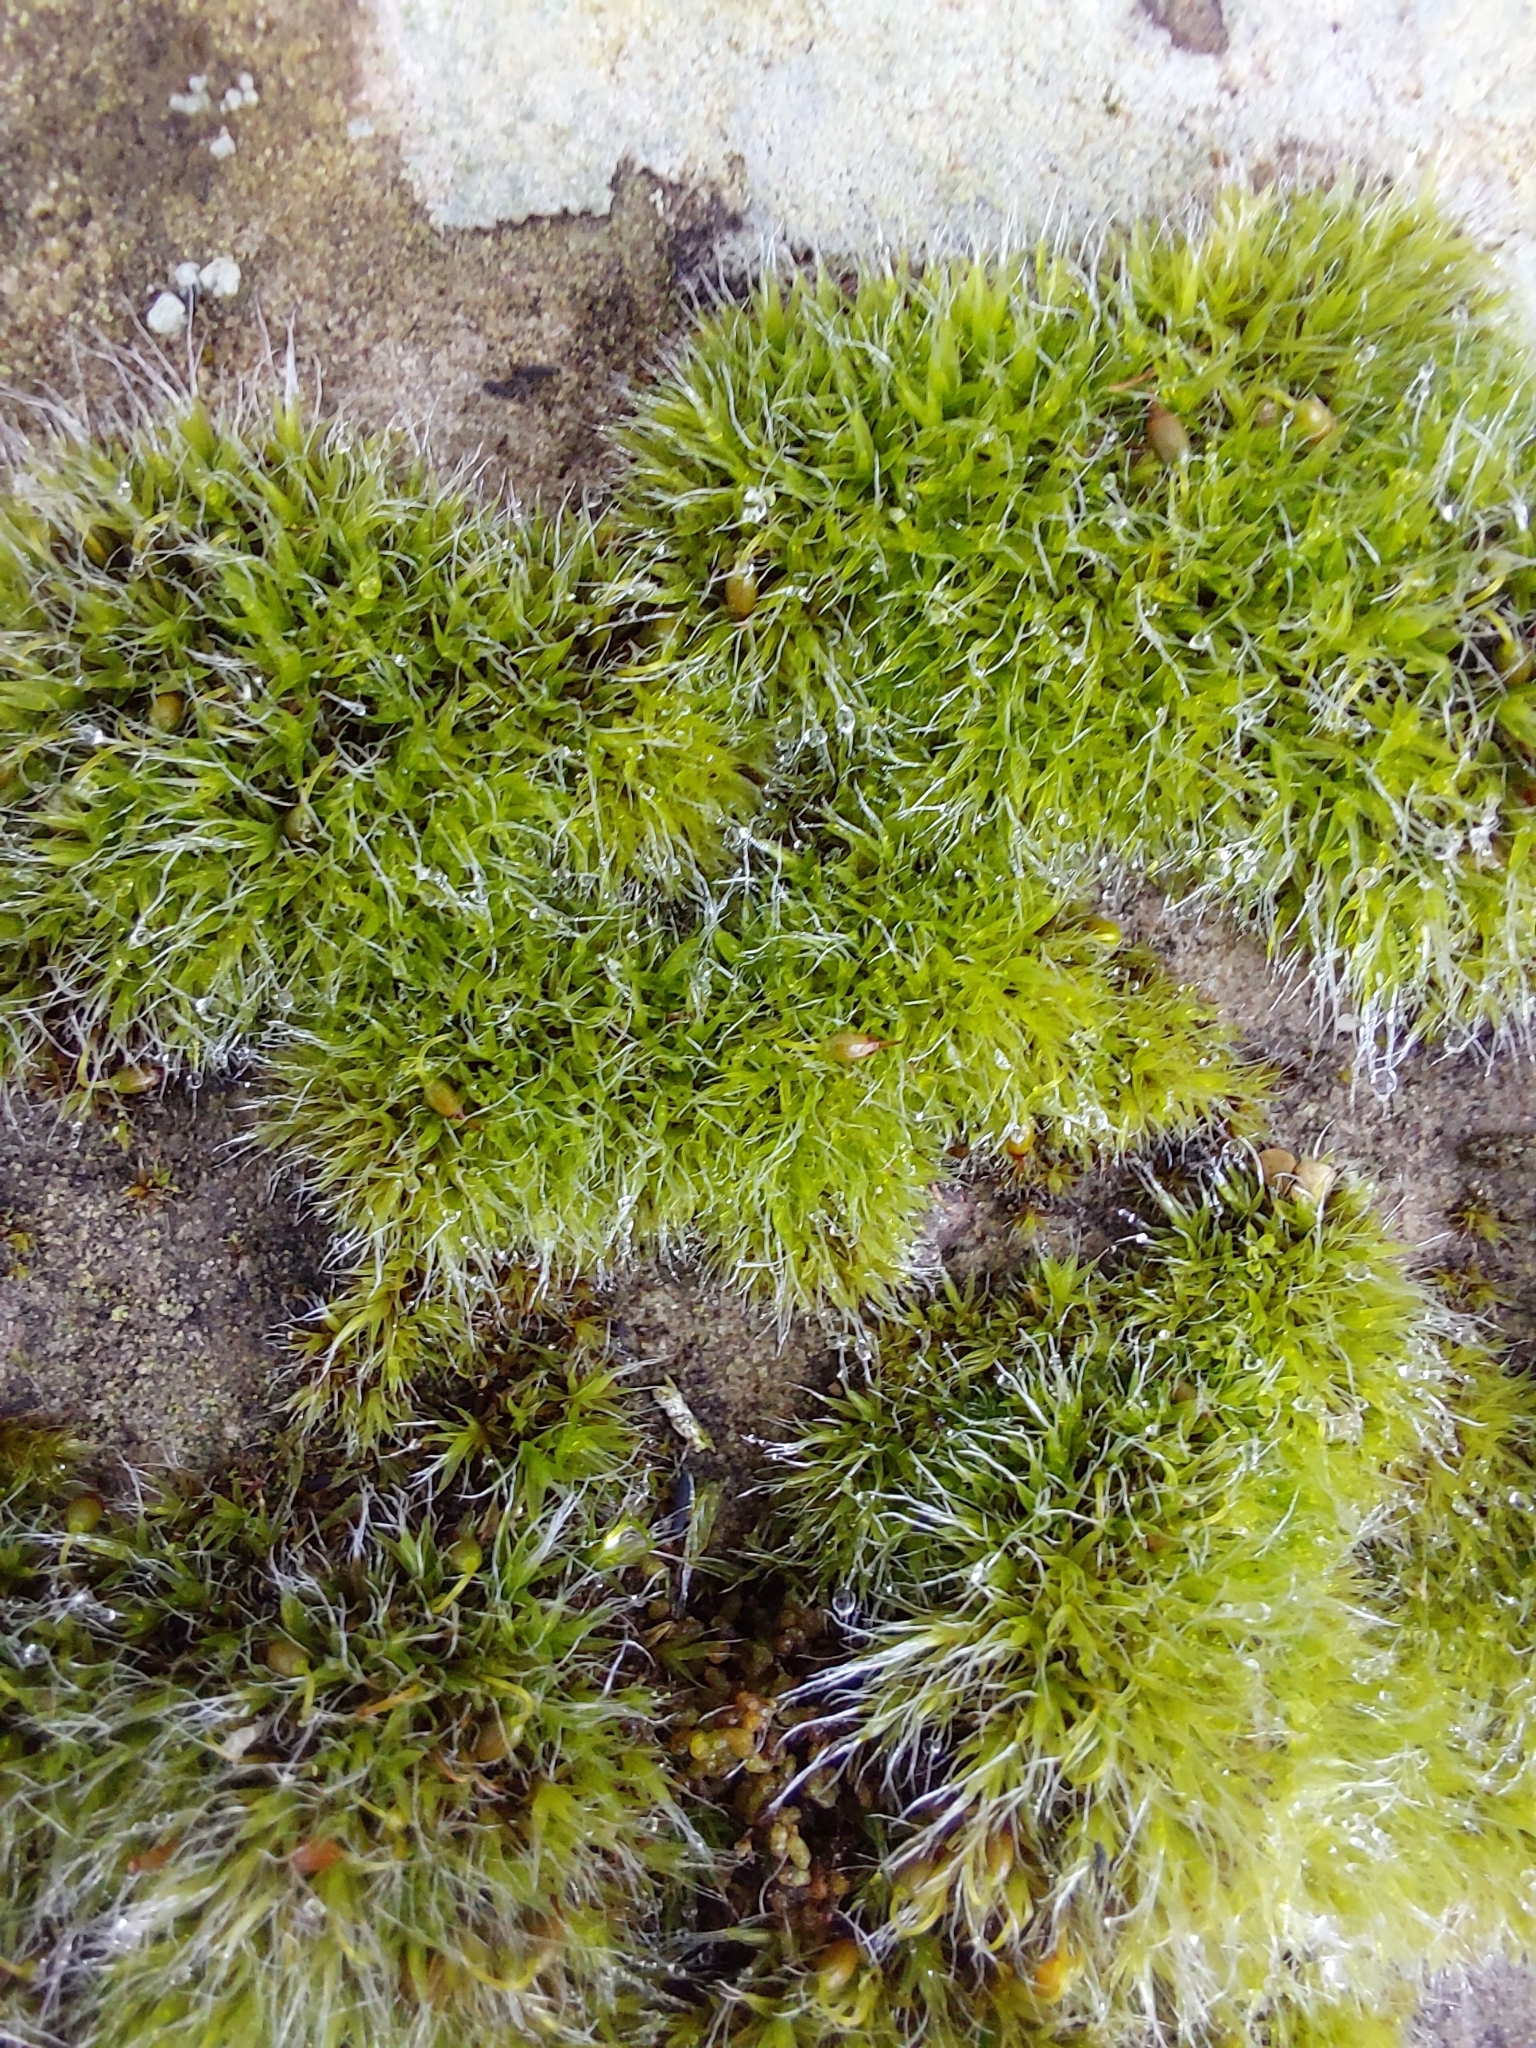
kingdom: Plantae
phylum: Bryophyta
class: Bryopsida
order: Grimmiales
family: Grimmiaceae
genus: Grimmia
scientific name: Grimmia pulvinata
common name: Grey-cushioned grimmia
